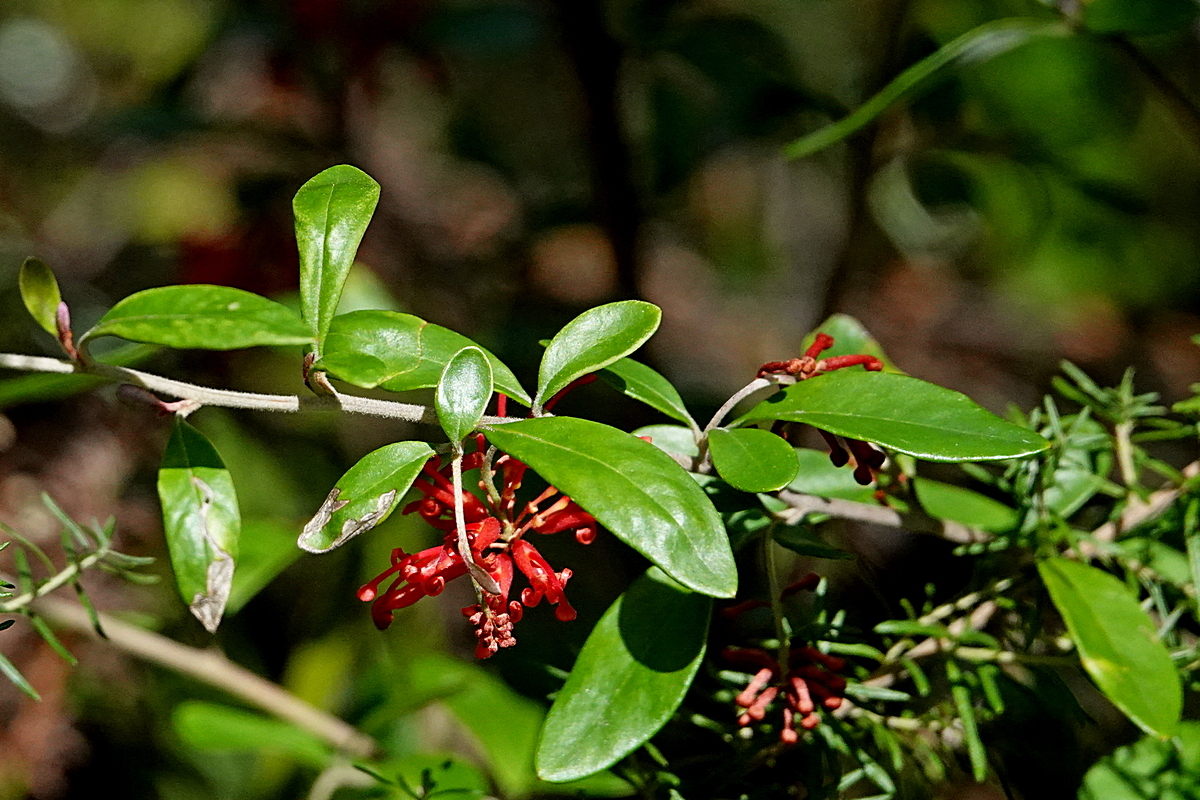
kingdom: Plantae
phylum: Tracheophyta
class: Magnoliopsida
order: Proteales
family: Proteaceae
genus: Grevillea
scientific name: Grevillea parvula
